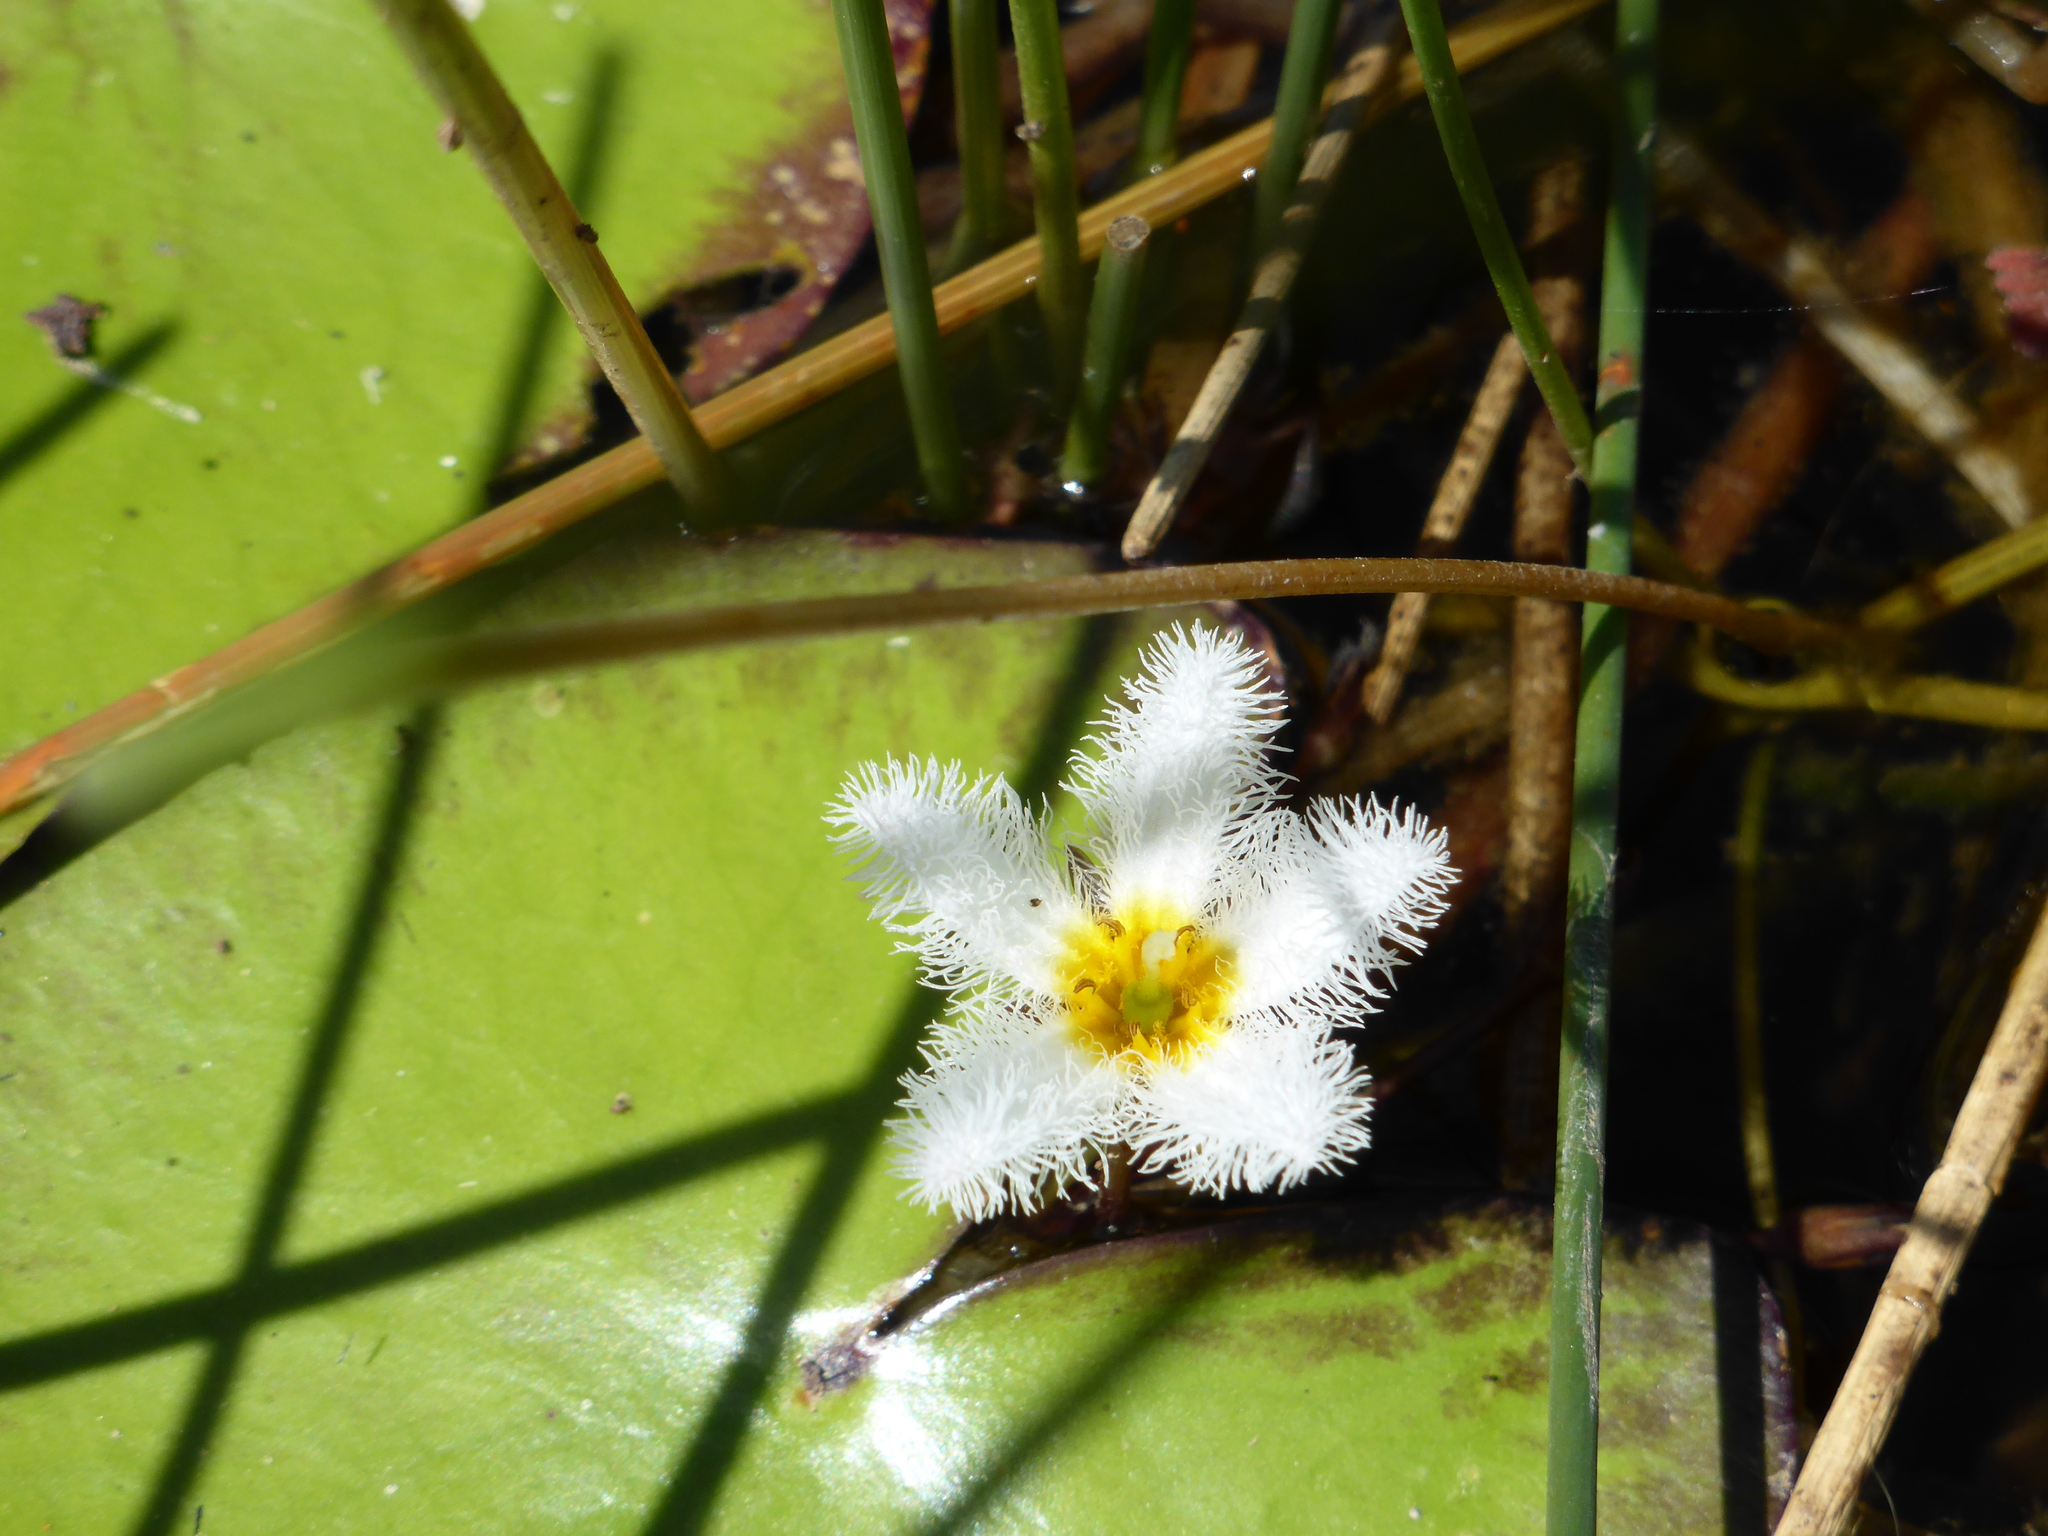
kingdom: Plantae
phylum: Tracheophyta
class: Magnoliopsida
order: Asterales
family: Menyanthaceae
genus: Nymphoides
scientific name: Nymphoides indica
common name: Water-snowflake
